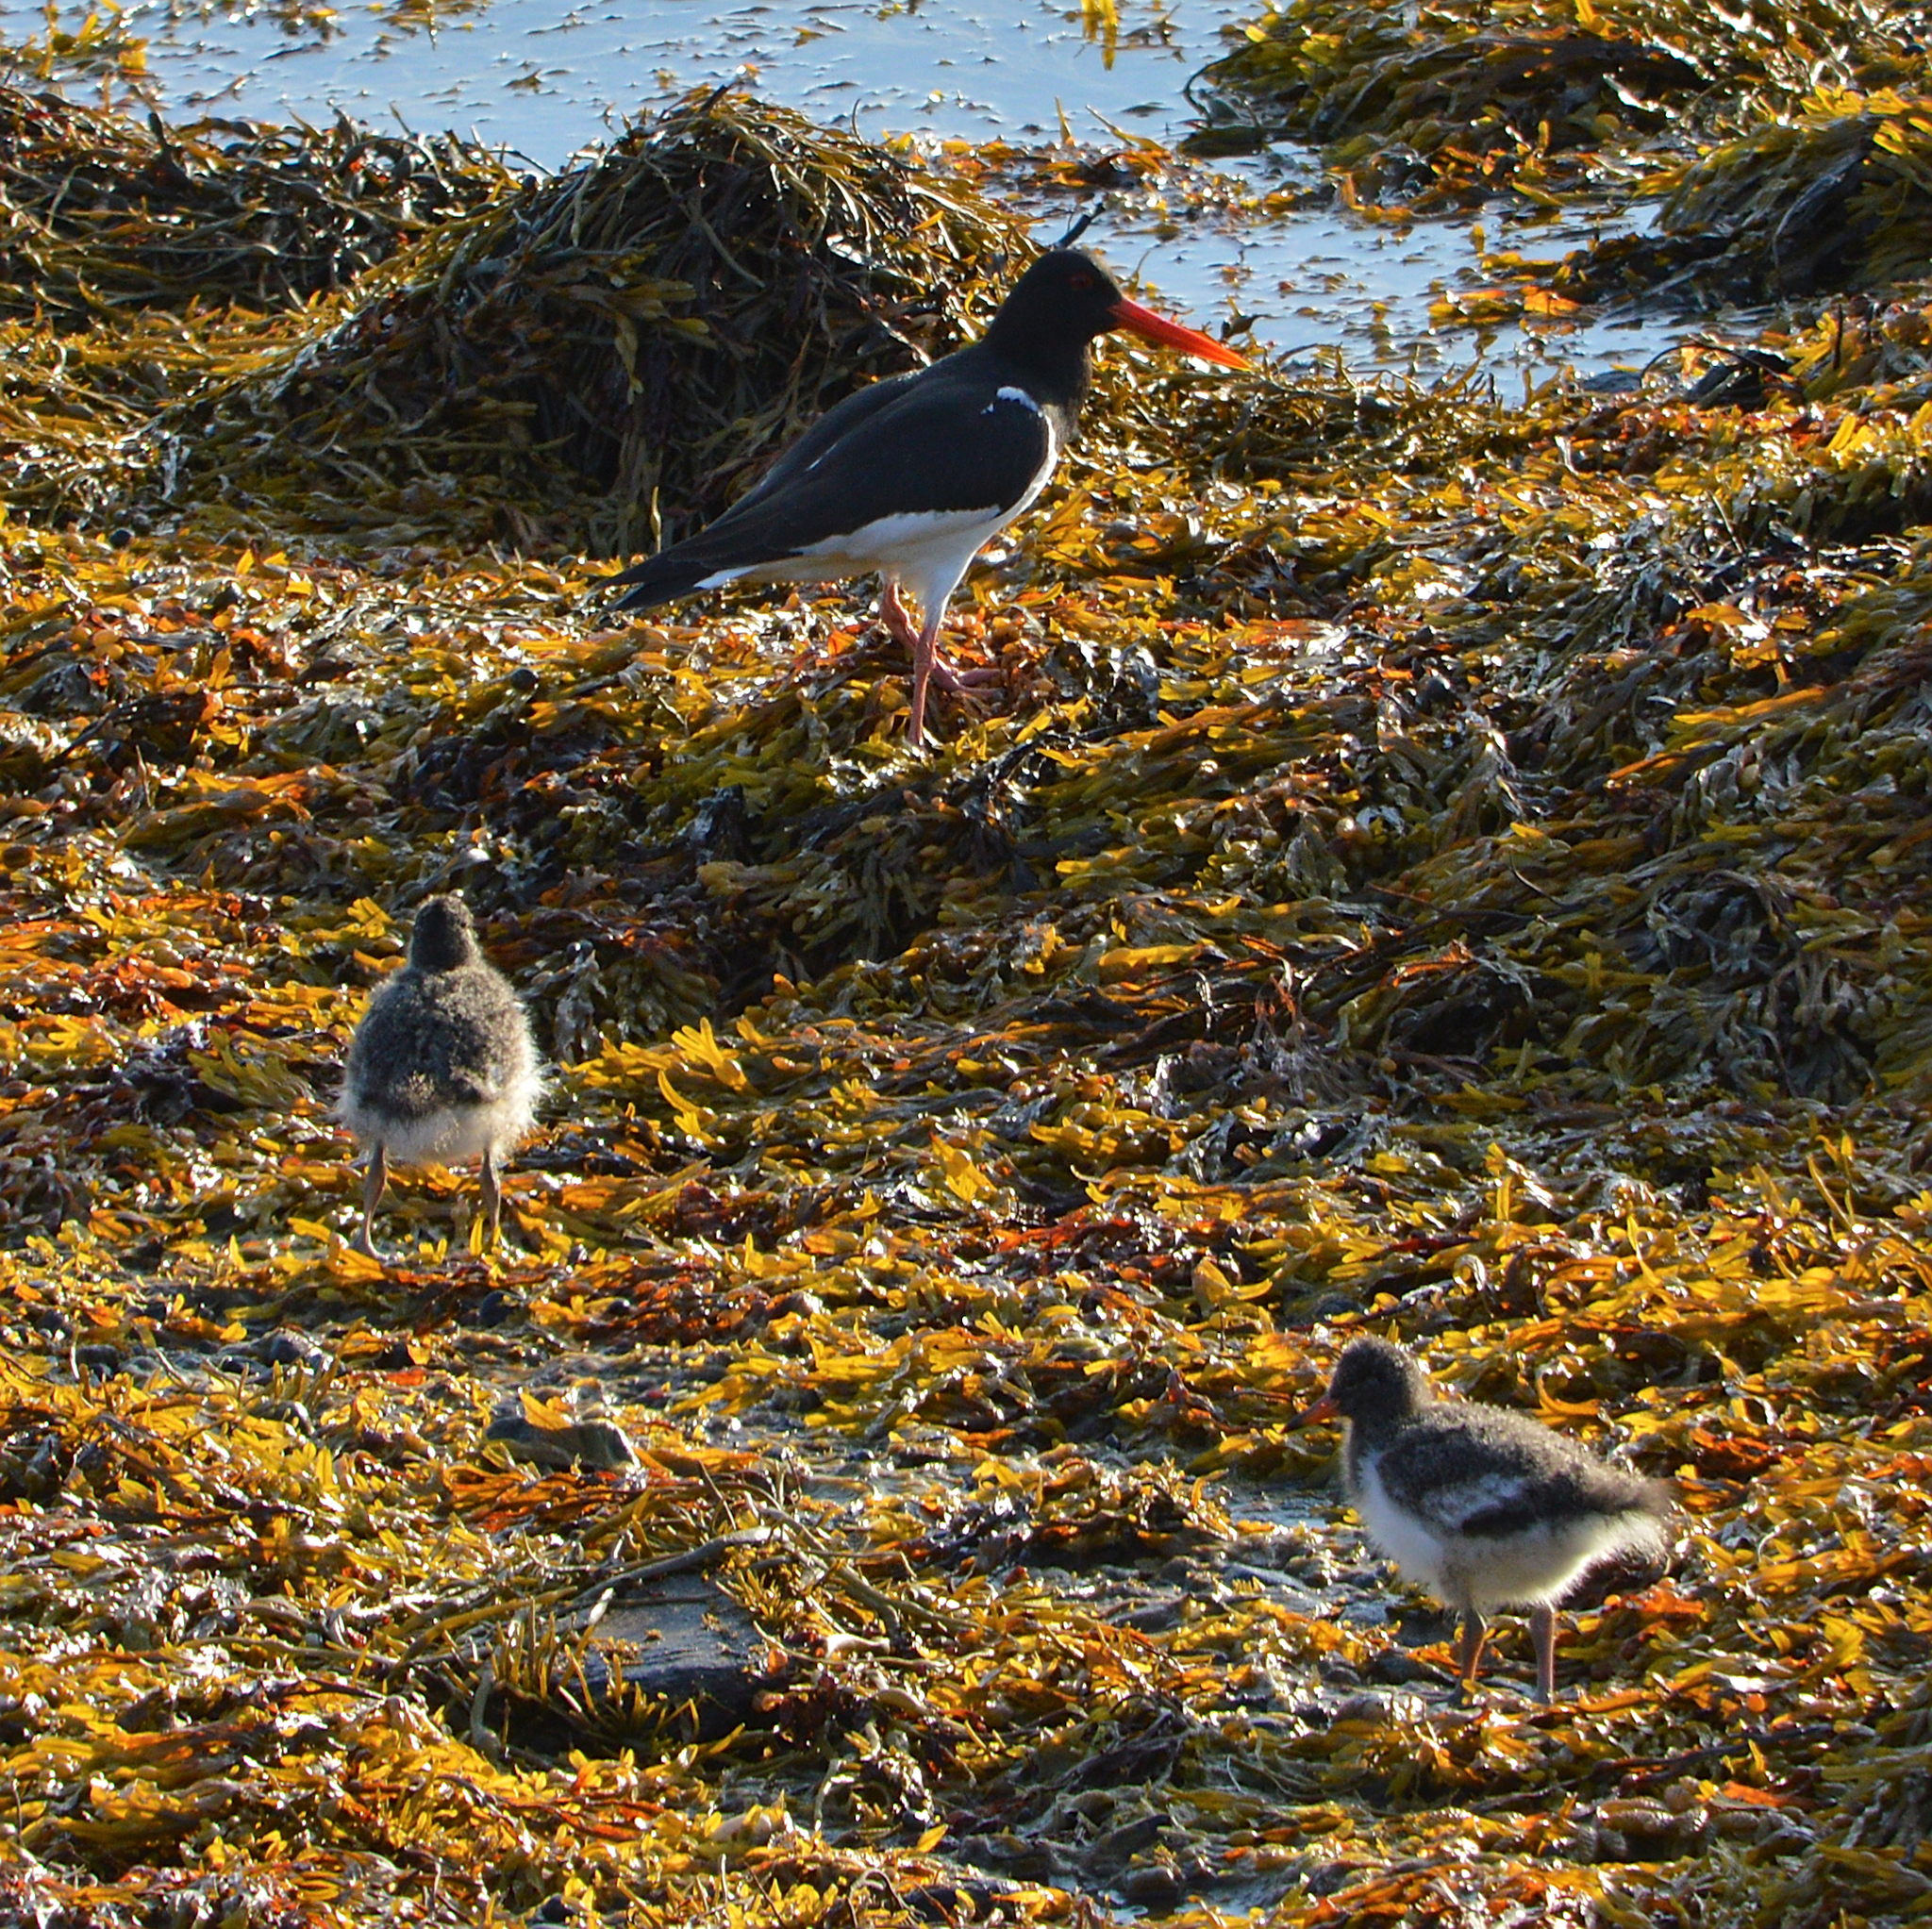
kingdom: Animalia
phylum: Chordata
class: Aves
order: Charadriiformes
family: Haematopodidae
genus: Haematopus
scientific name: Haematopus ostralegus
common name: Eurasian oystercatcher
